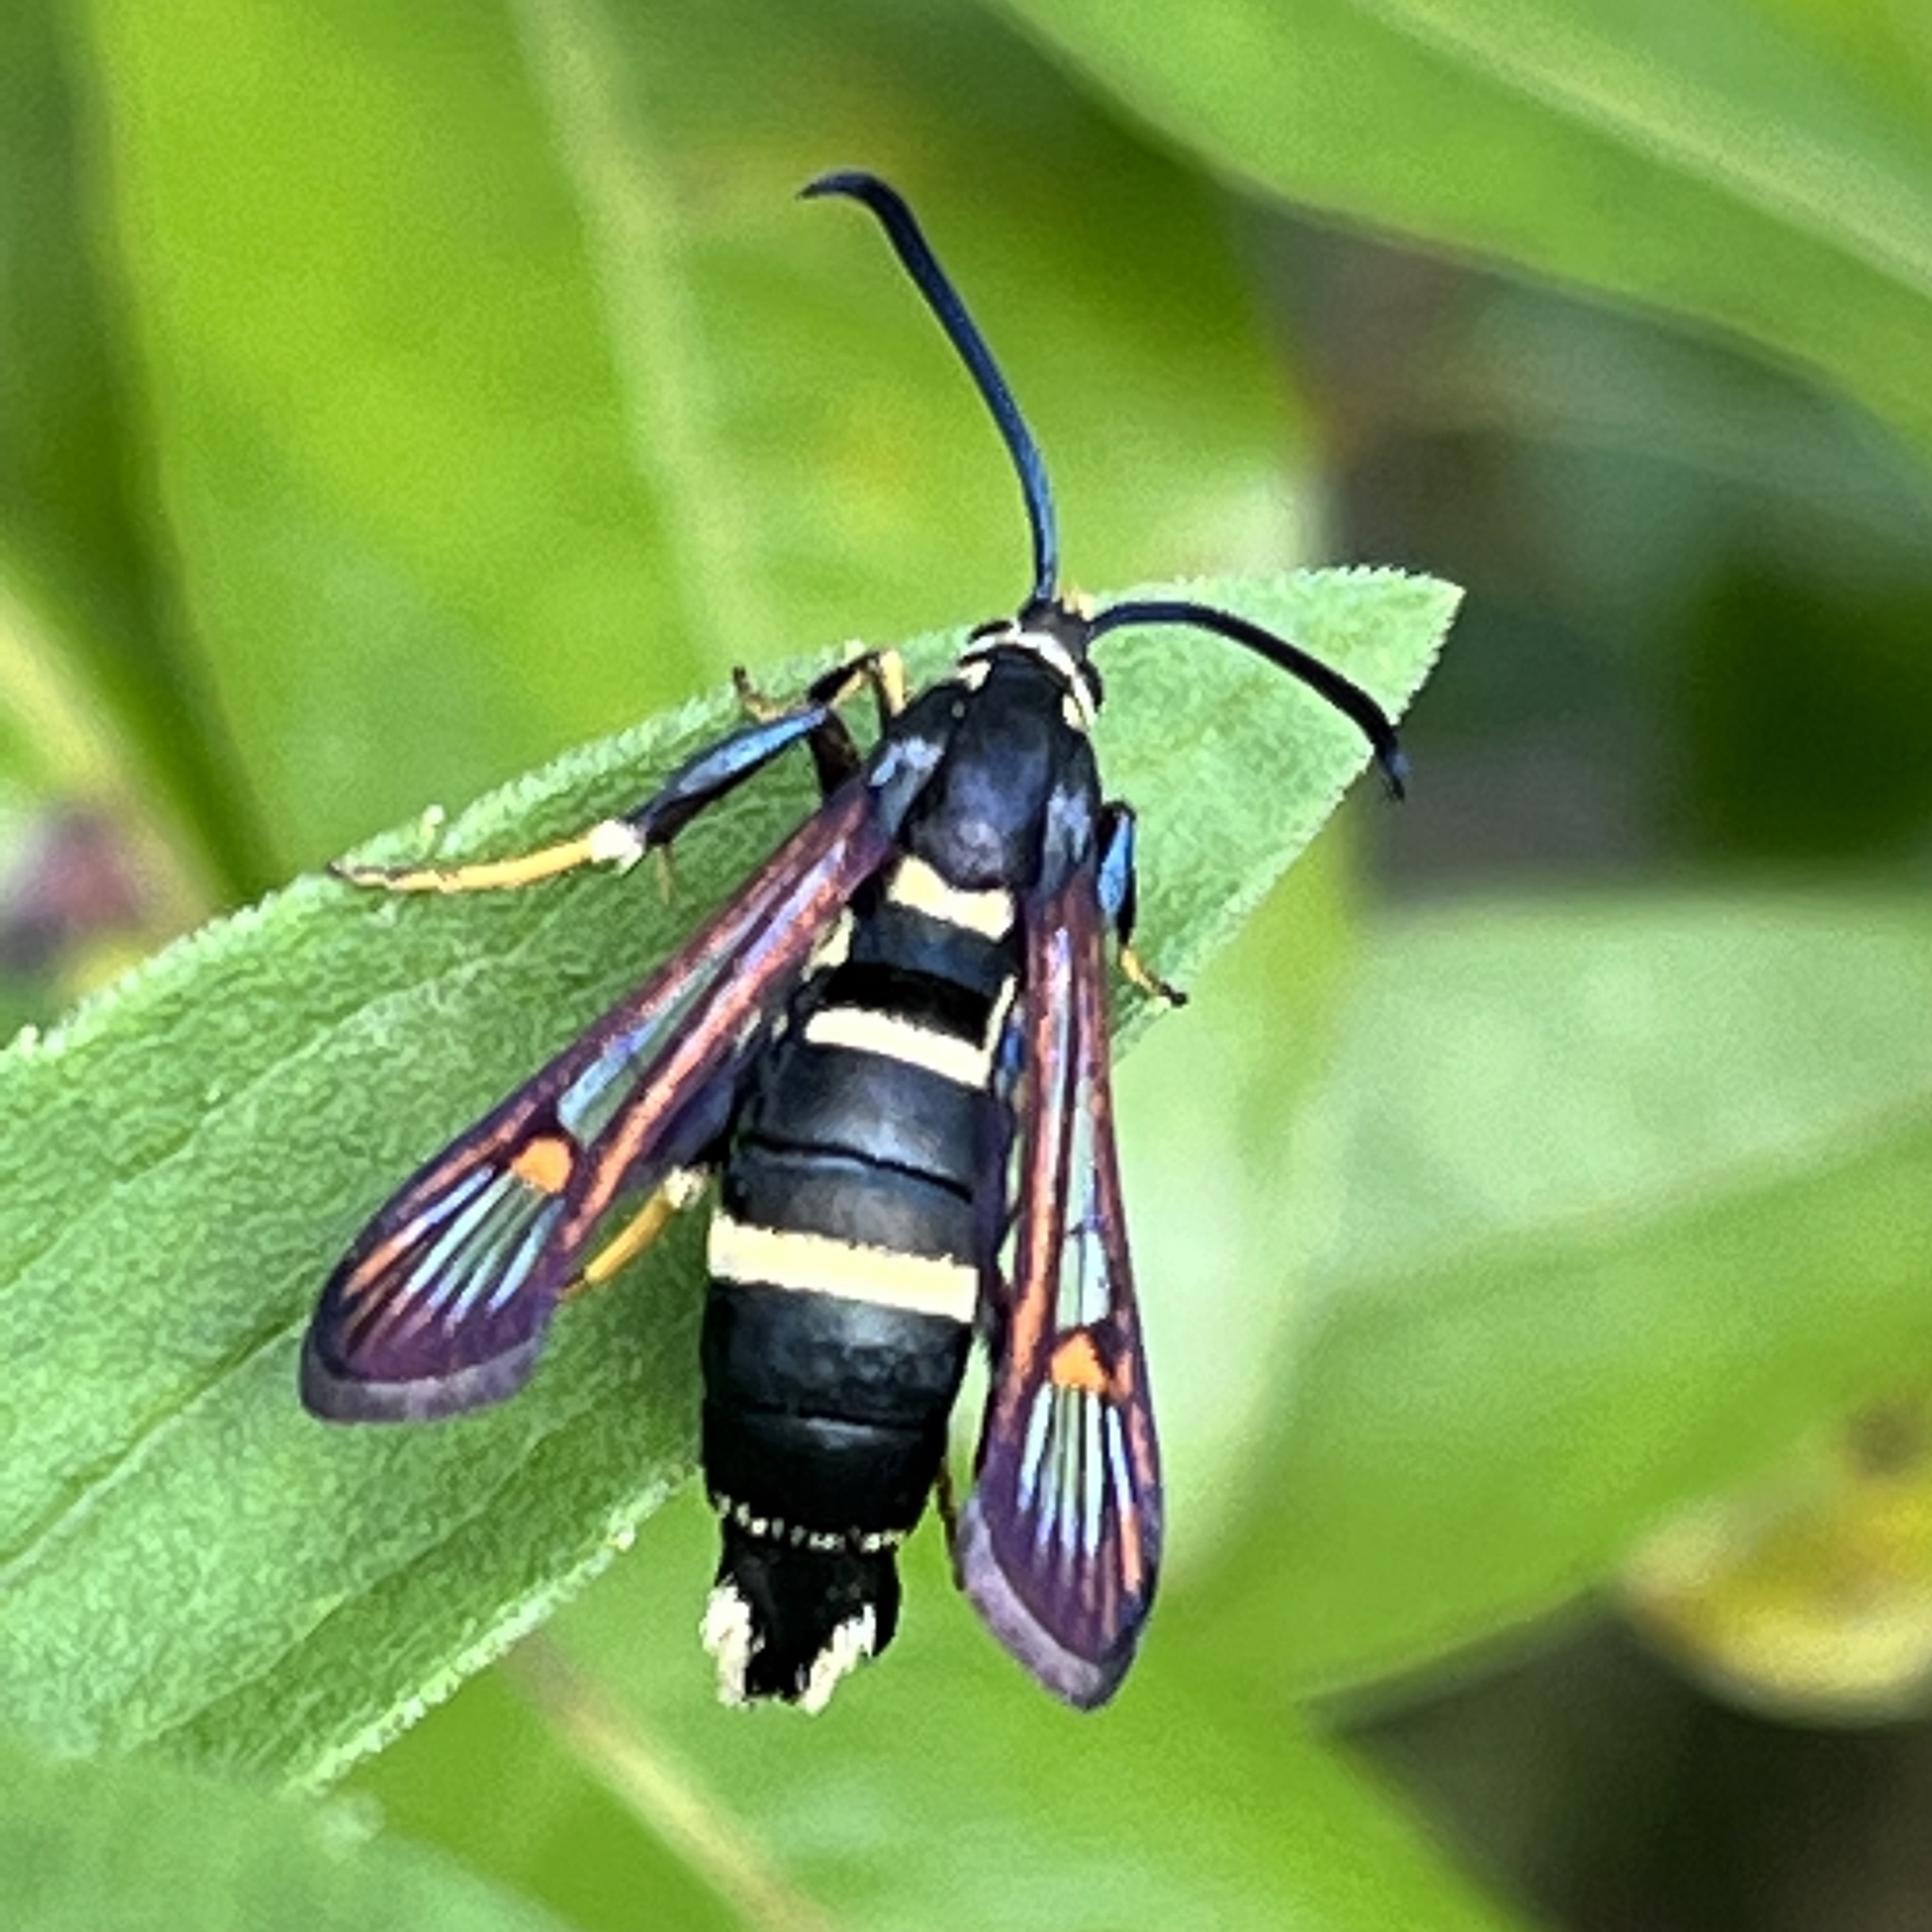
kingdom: Animalia
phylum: Arthropoda
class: Insecta
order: Lepidoptera
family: Sesiidae
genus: Synanthedon
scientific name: Synanthedon sigmoidea
